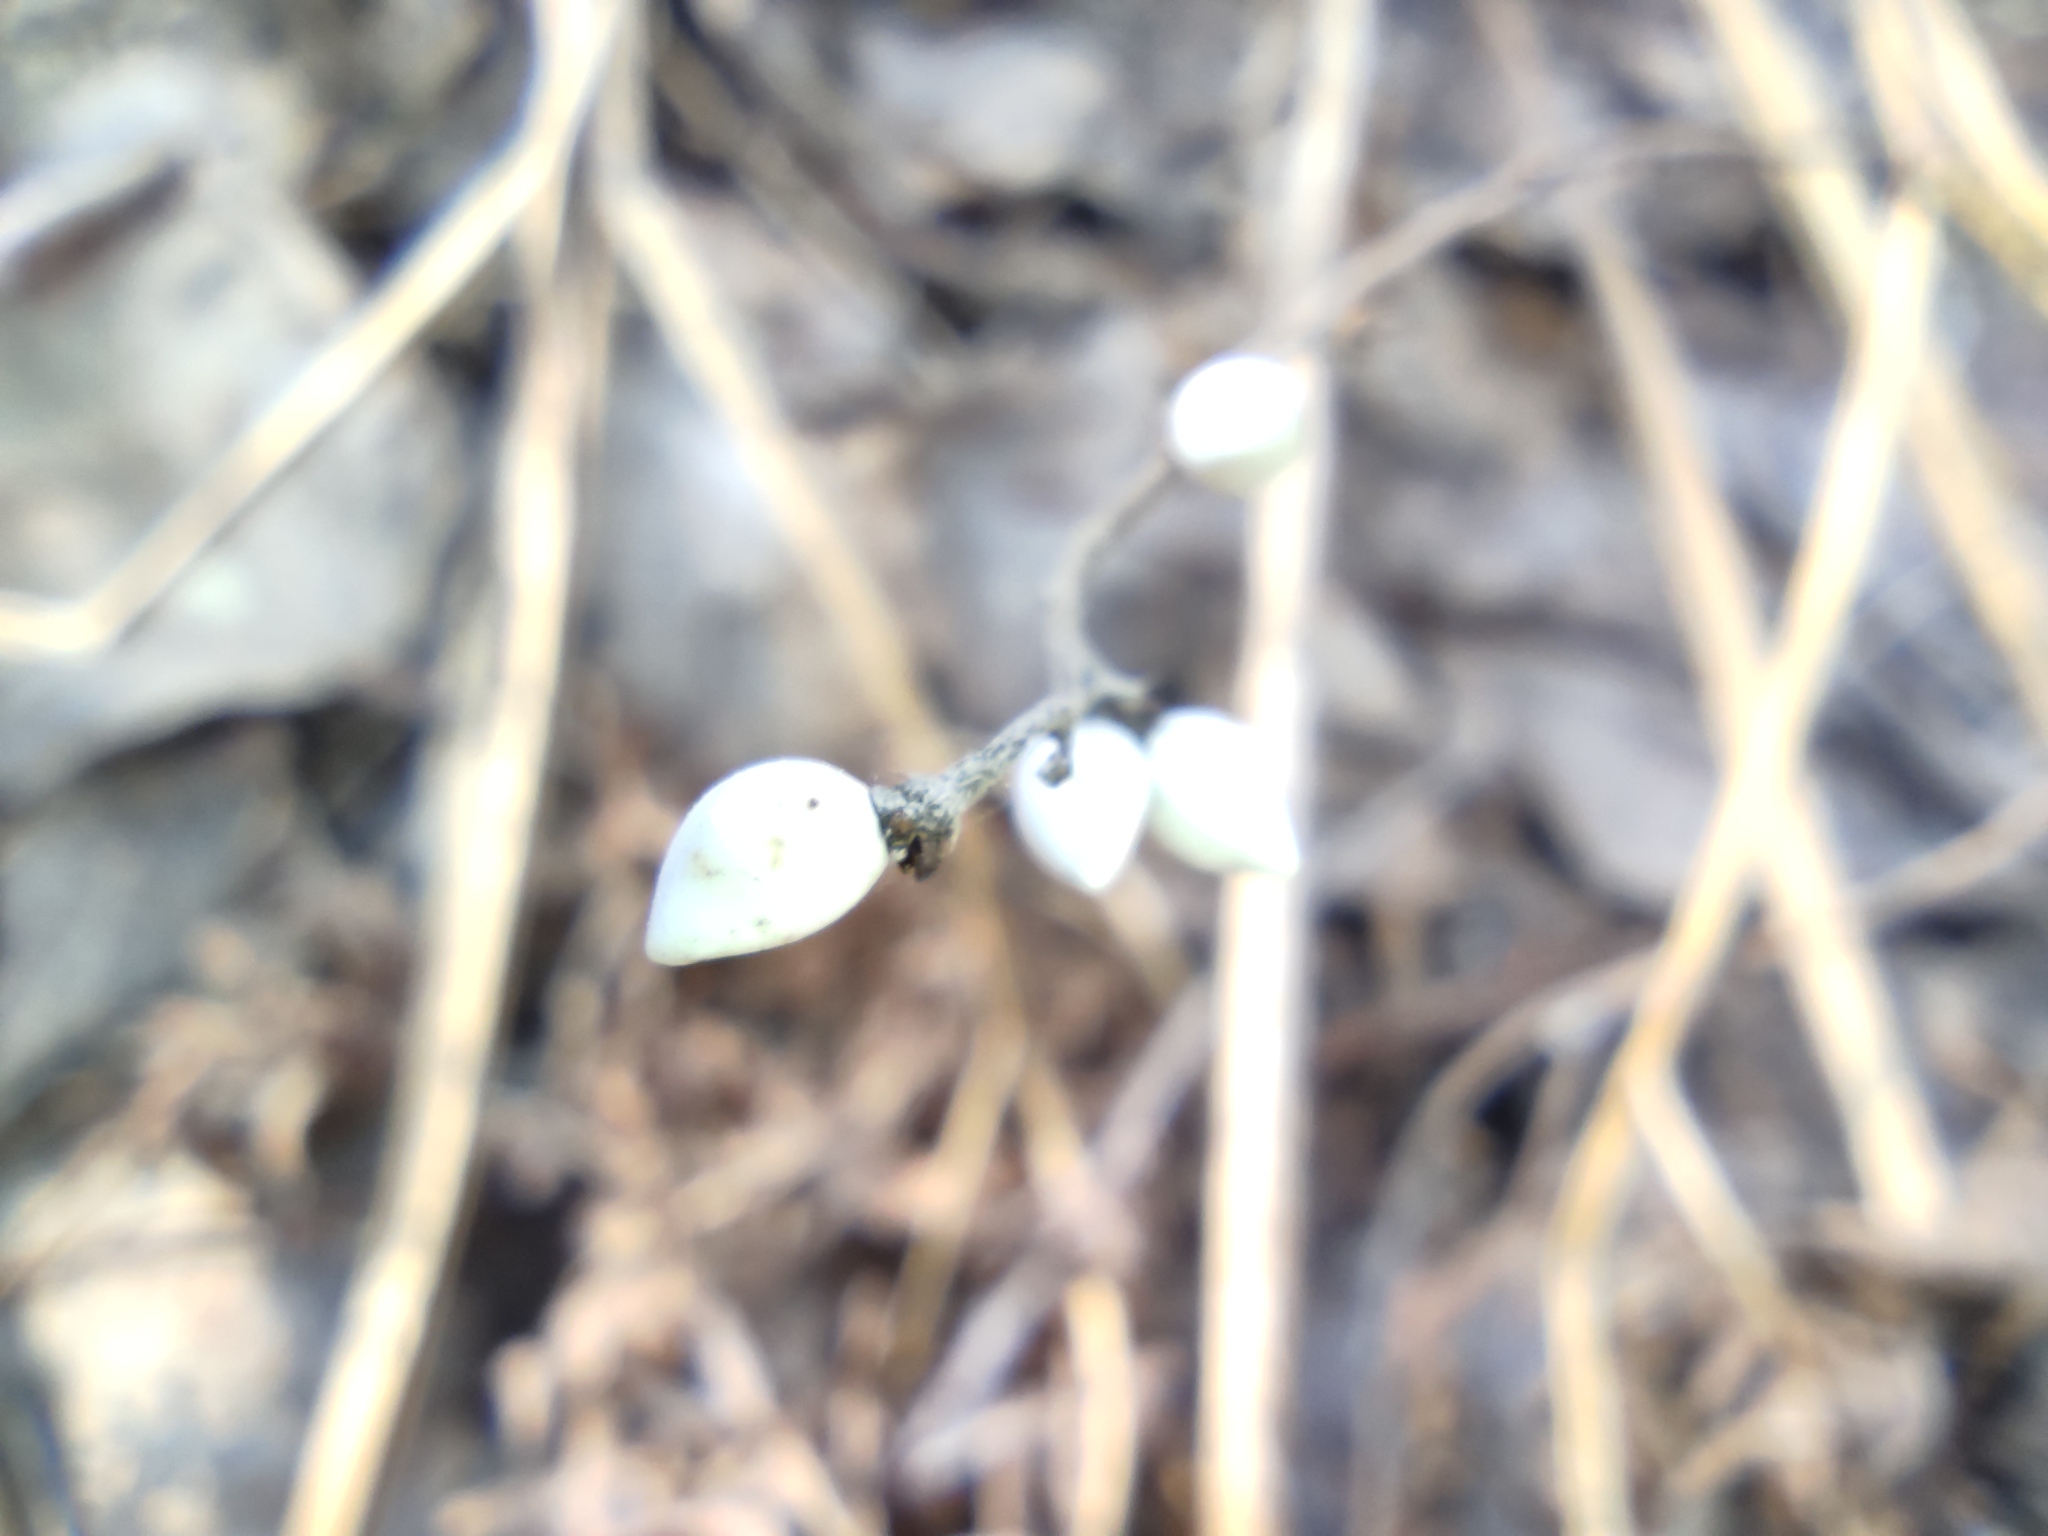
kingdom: Plantae
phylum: Tracheophyta
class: Magnoliopsida
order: Boraginales
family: Boraginaceae
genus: Lithospermum
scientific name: Lithospermum officinale
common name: Common gromwell
